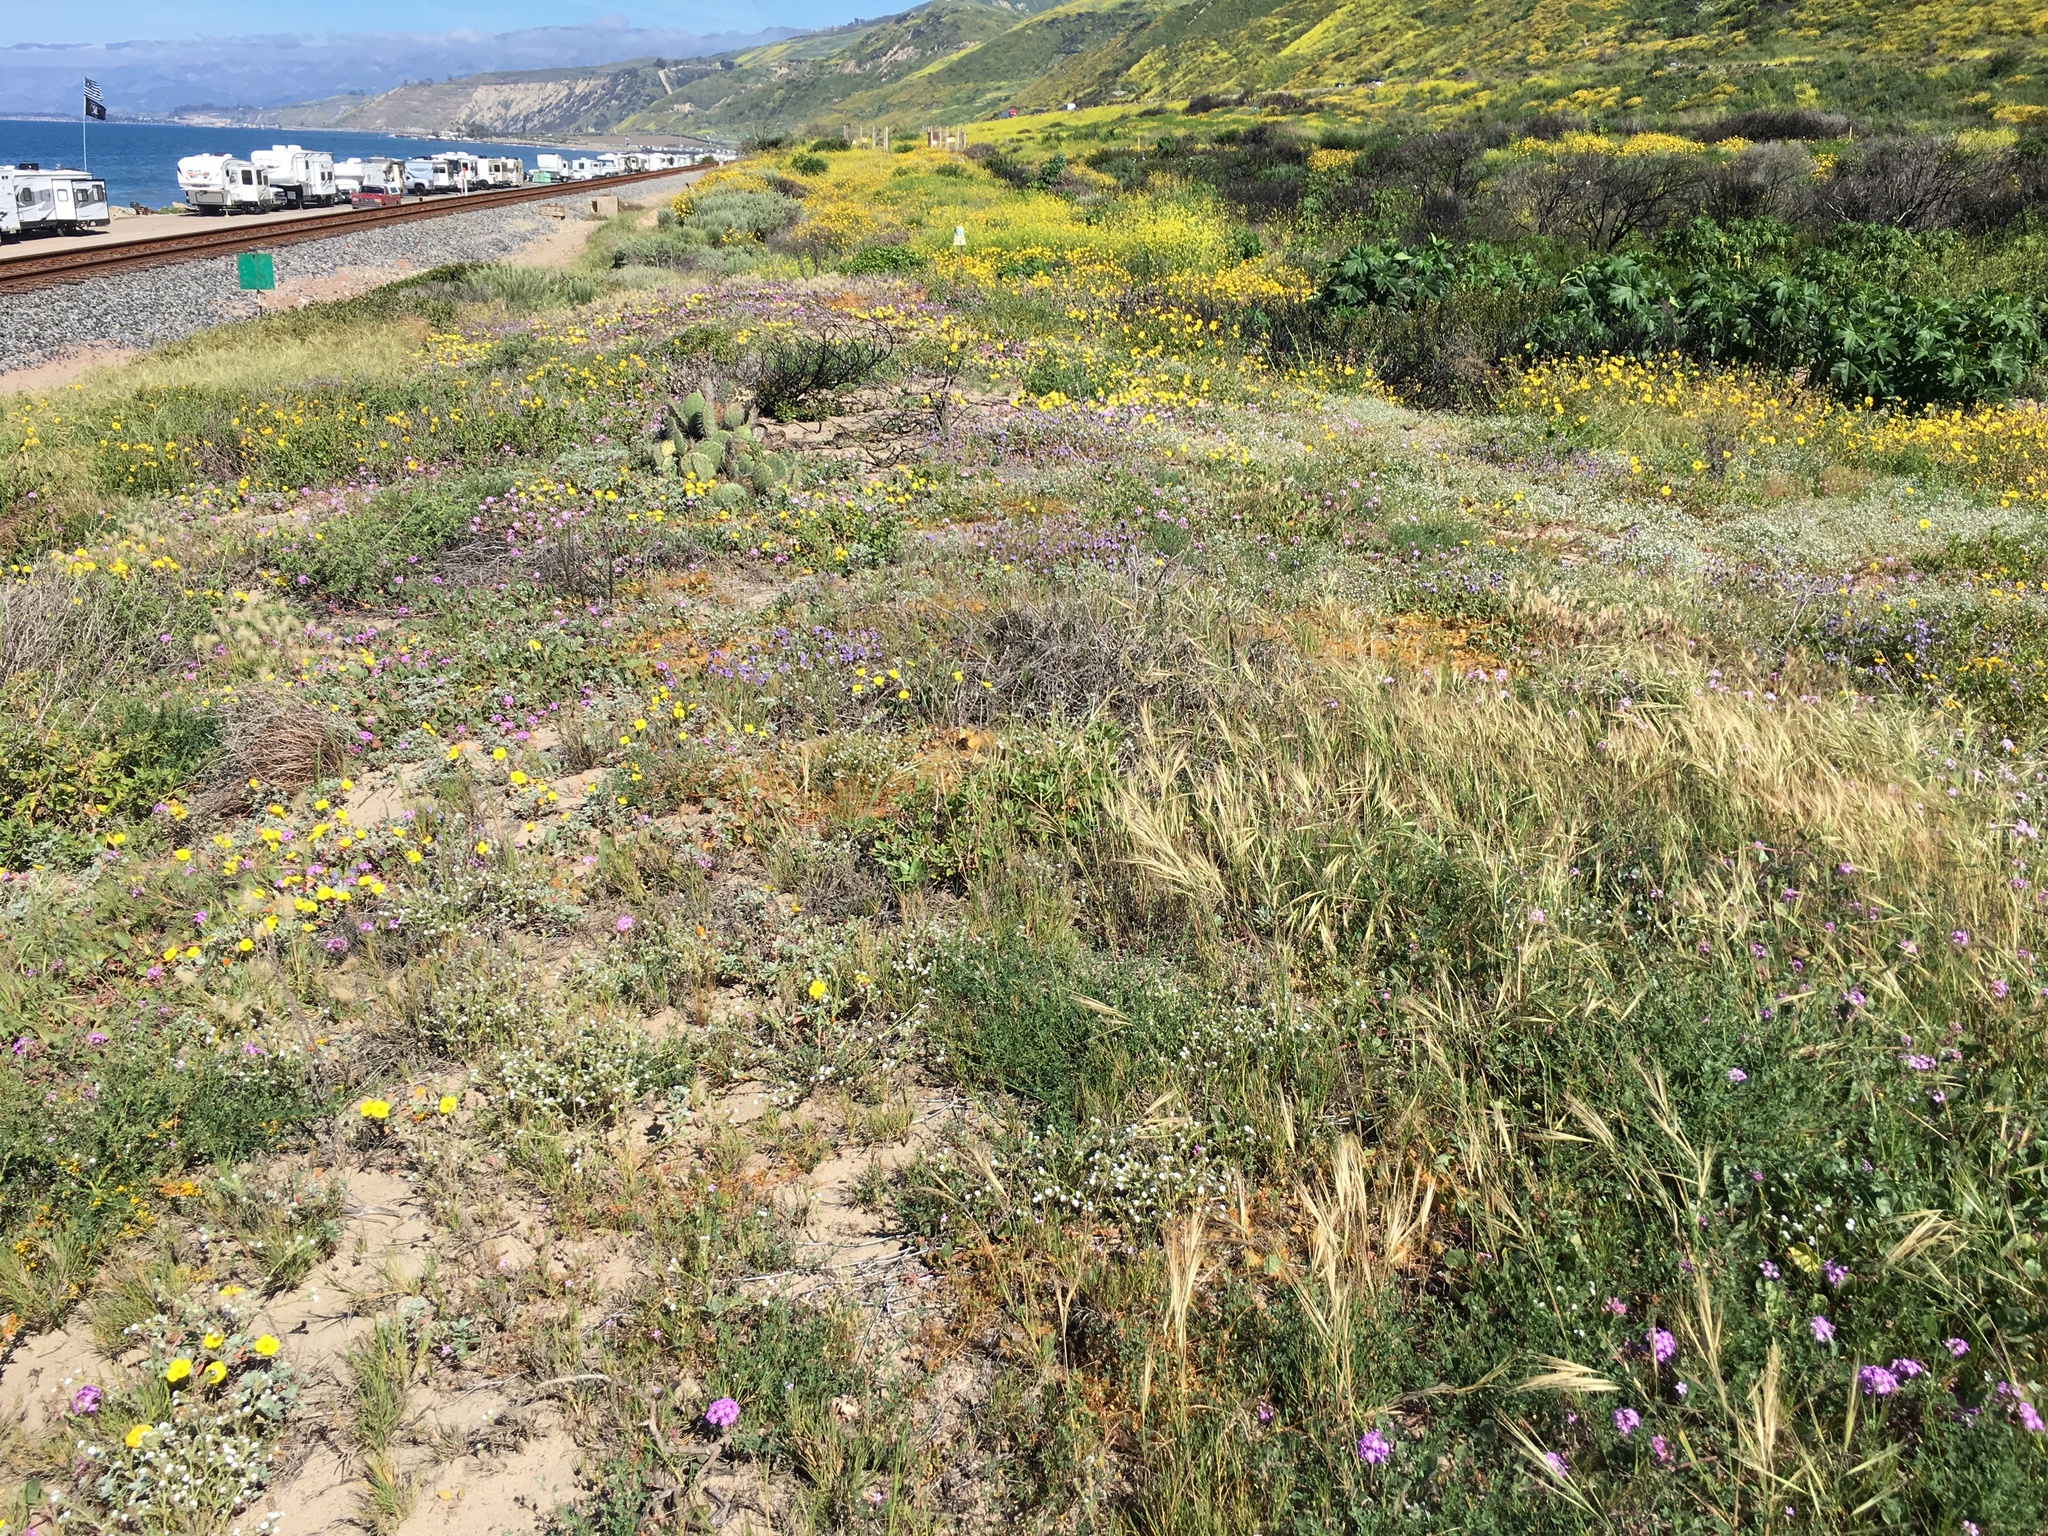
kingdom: Plantae
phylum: Tracheophyta
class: Magnoliopsida
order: Malpighiales
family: Euphorbiaceae
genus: Ricinus
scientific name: Ricinus communis
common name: Castor-oil-plant
